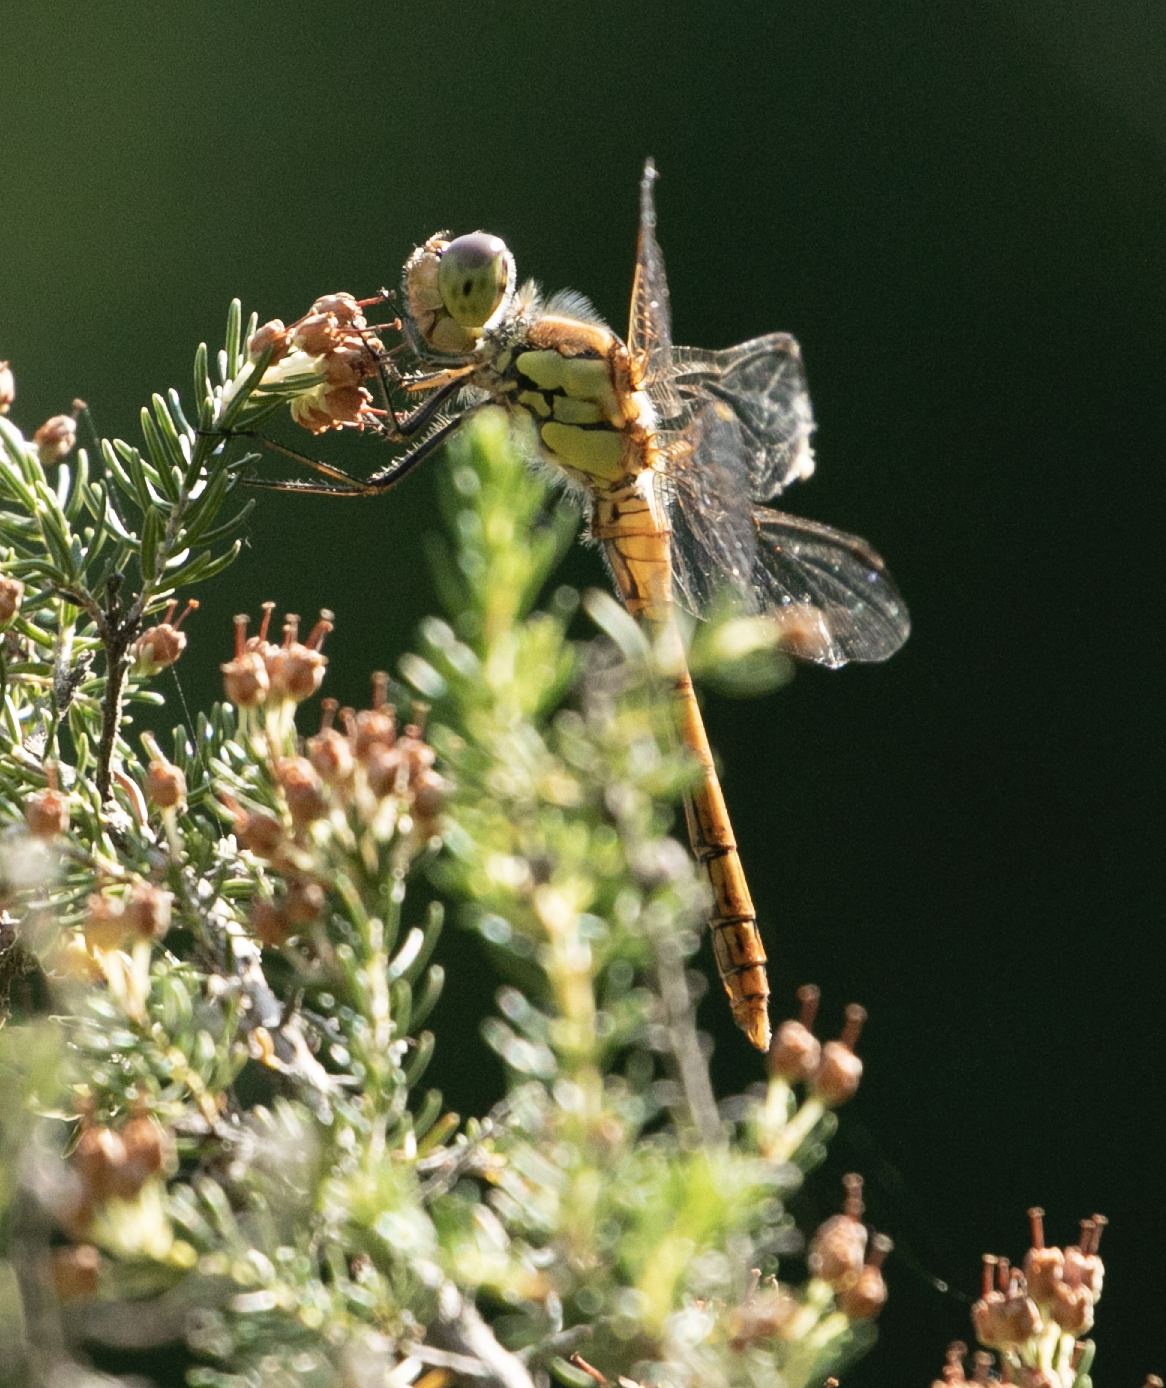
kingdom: Animalia
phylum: Arthropoda
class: Insecta
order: Odonata
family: Libellulidae
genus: Sympetrum
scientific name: Sympetrum striolatum
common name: Common darter
